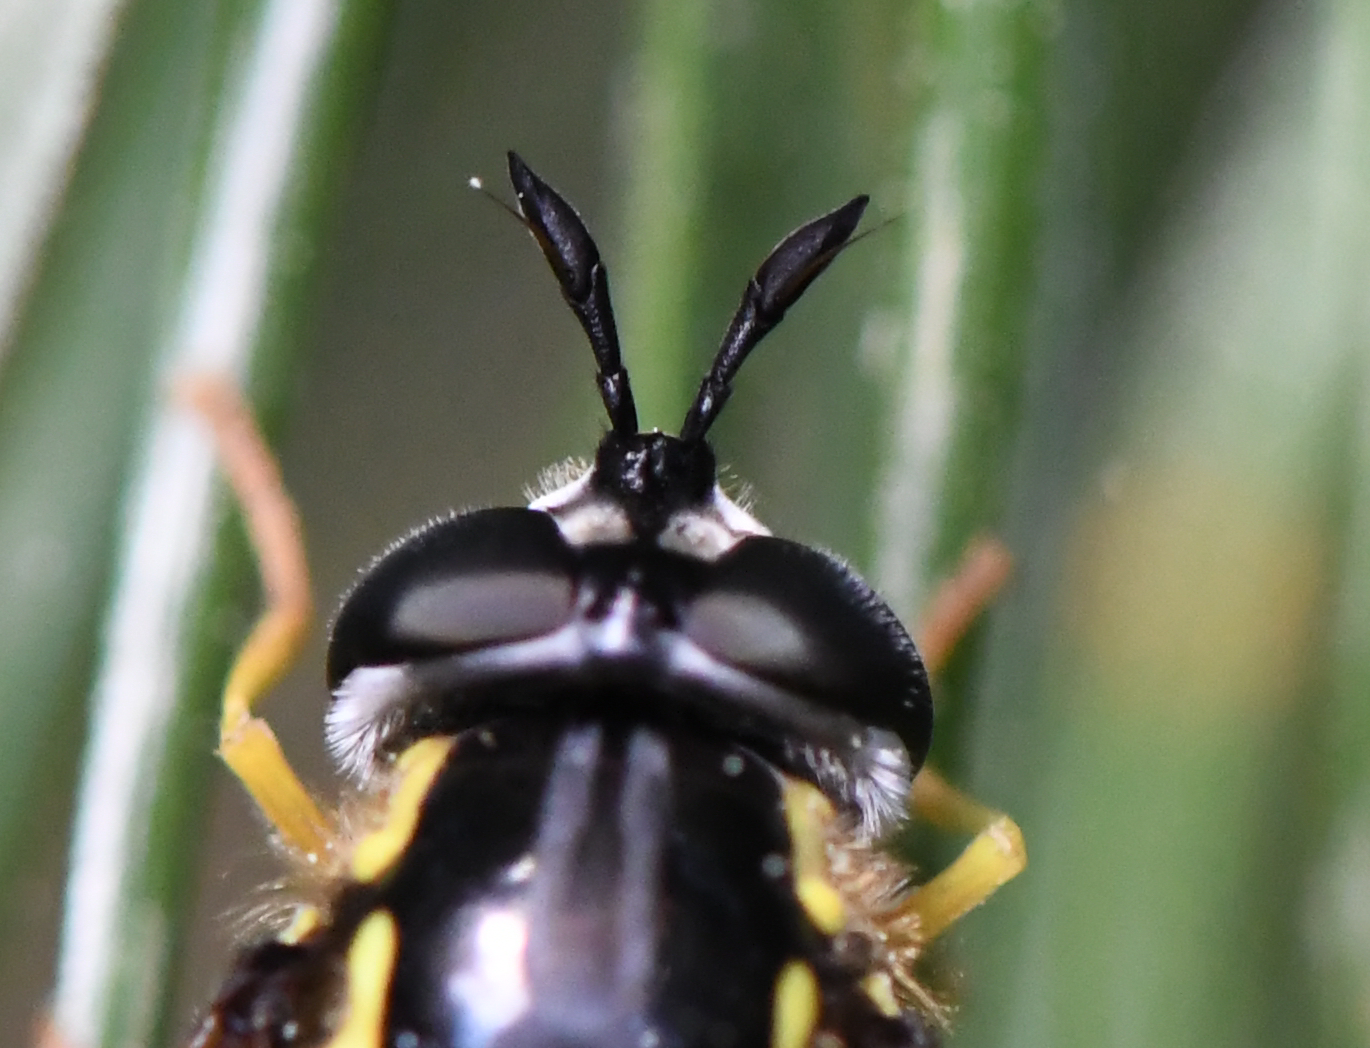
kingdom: Animalia
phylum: Arthropoda
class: Insecta
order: Diptera
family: Syrphidae
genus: Chrysotoxum
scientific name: Chrysotoxum cautum
